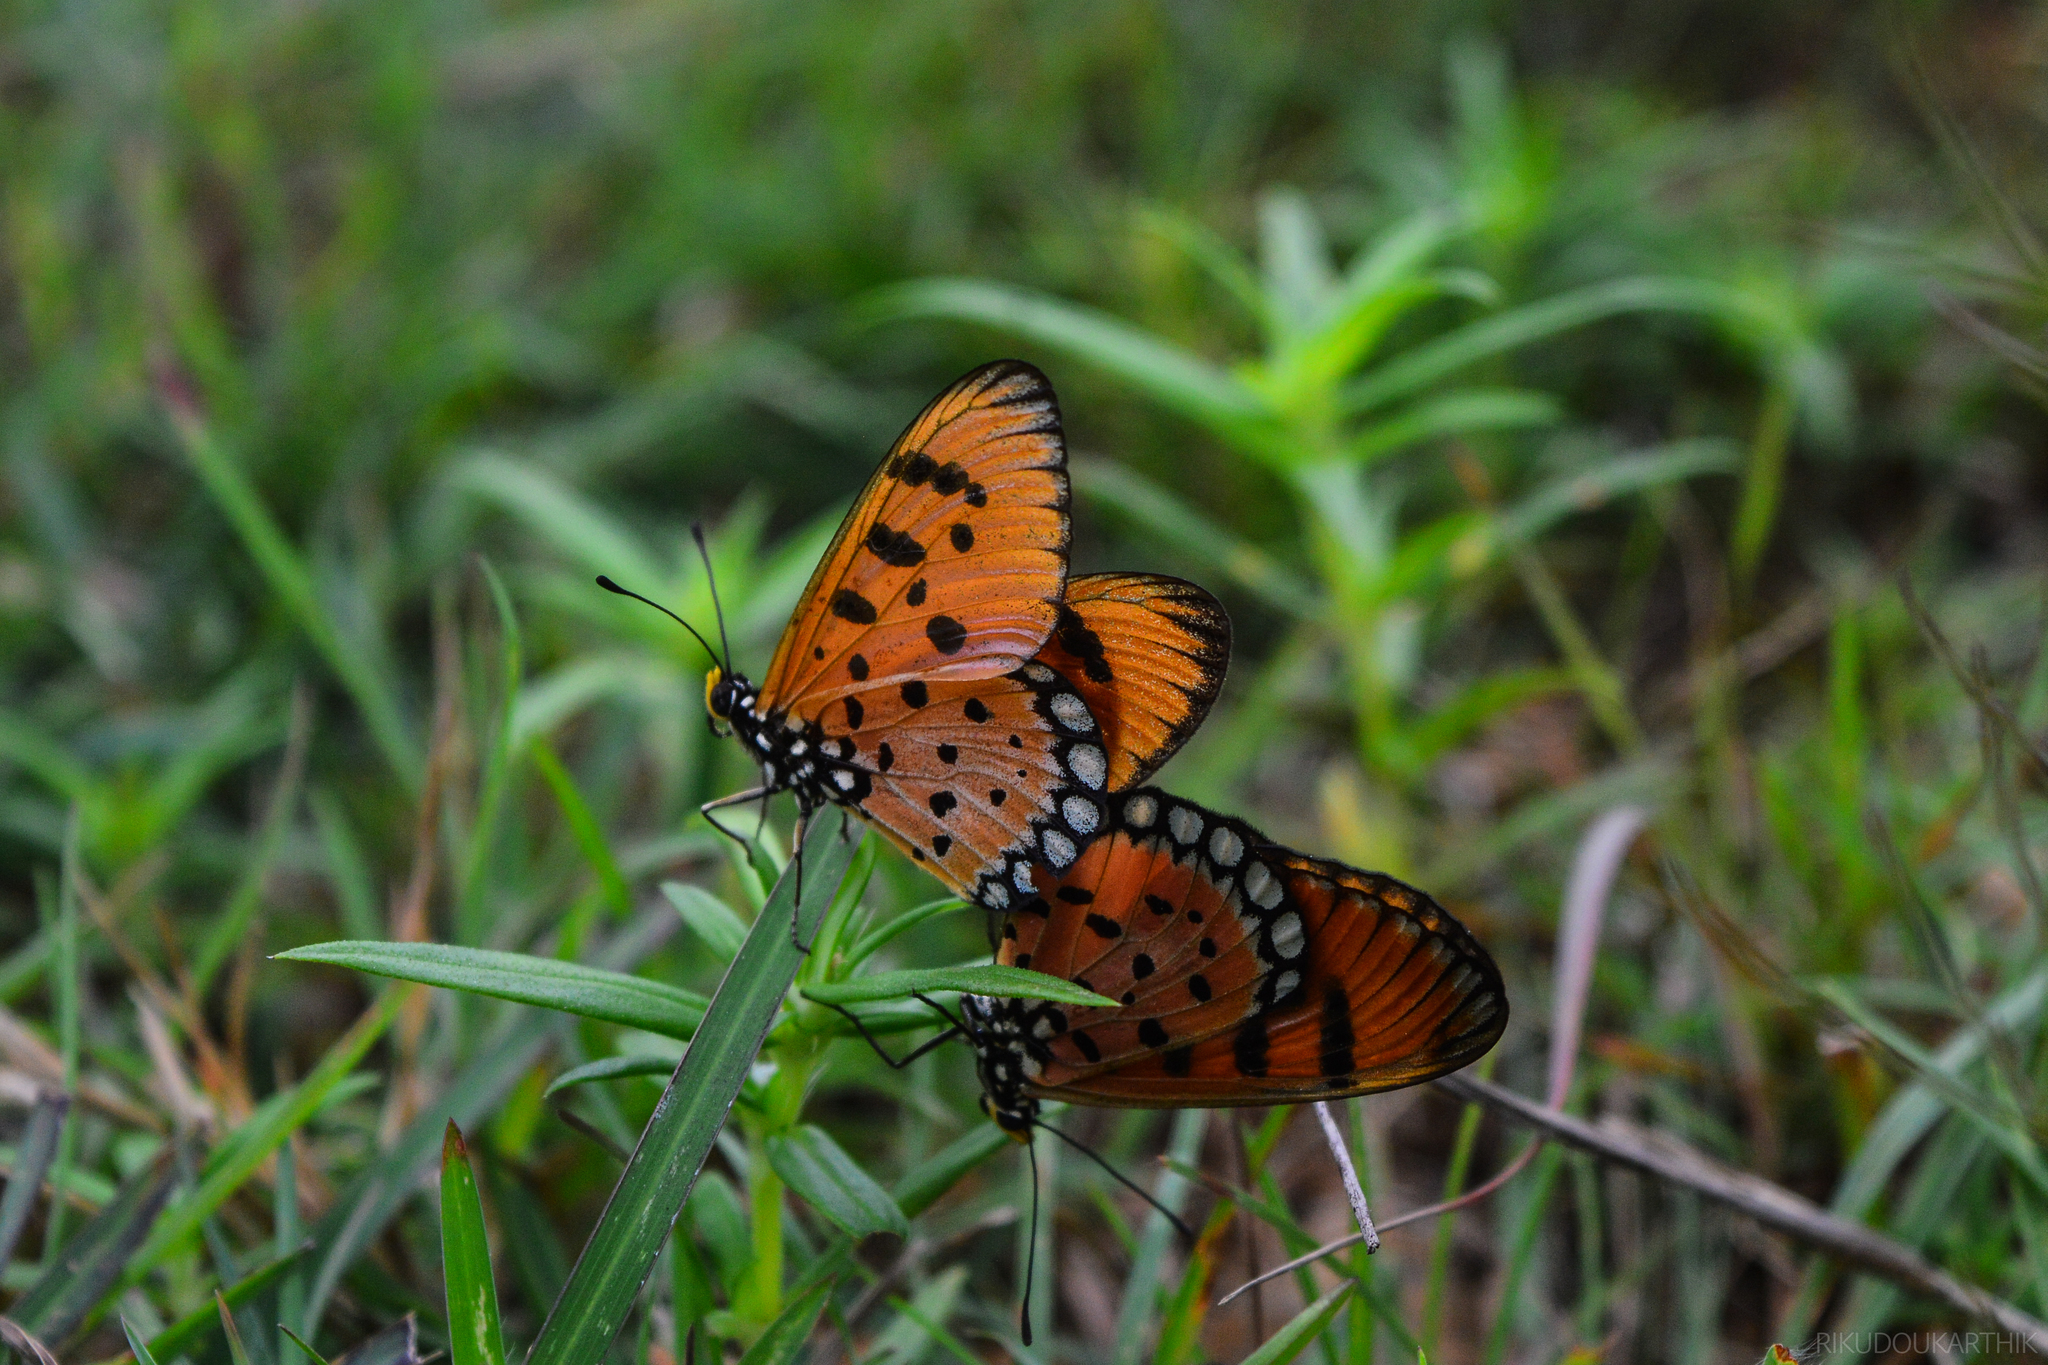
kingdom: Animalia
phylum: Arthropoda
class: Insecta
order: Lepidoptera
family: Nymphalidae
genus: Acraea
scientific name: Acraea terpsicore
